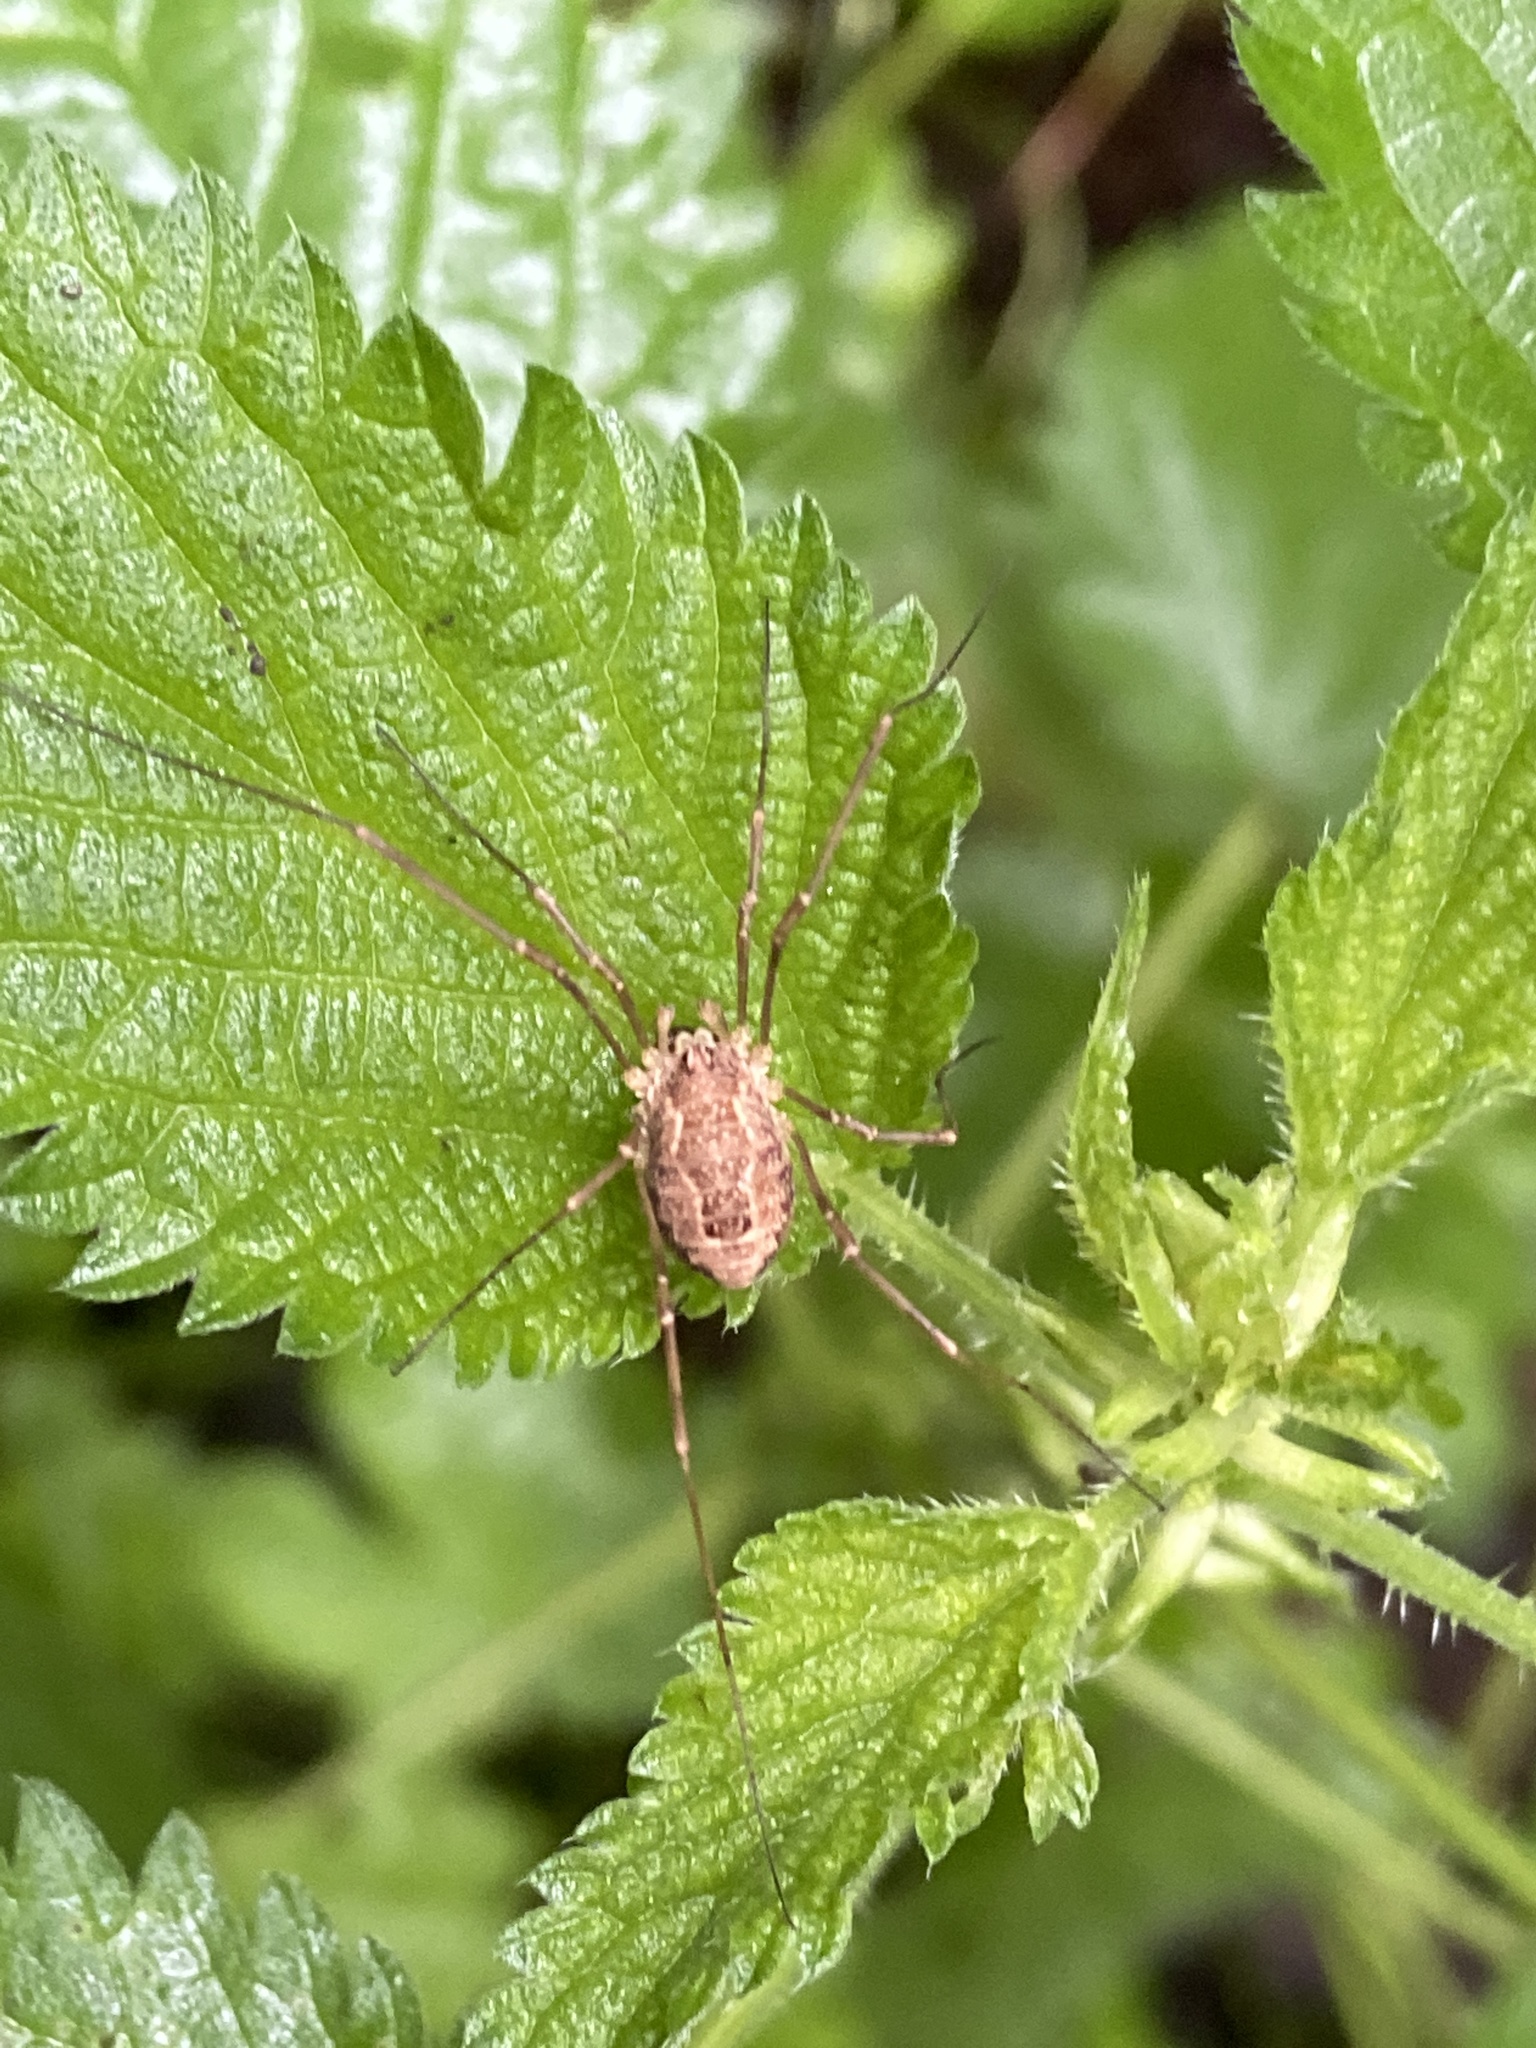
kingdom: Animalia
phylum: Arthropoda
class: Arachnida
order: Opiliones
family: Phalangiidae
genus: Rilaena
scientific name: Rilaena triangularis
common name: Spring harvestman
